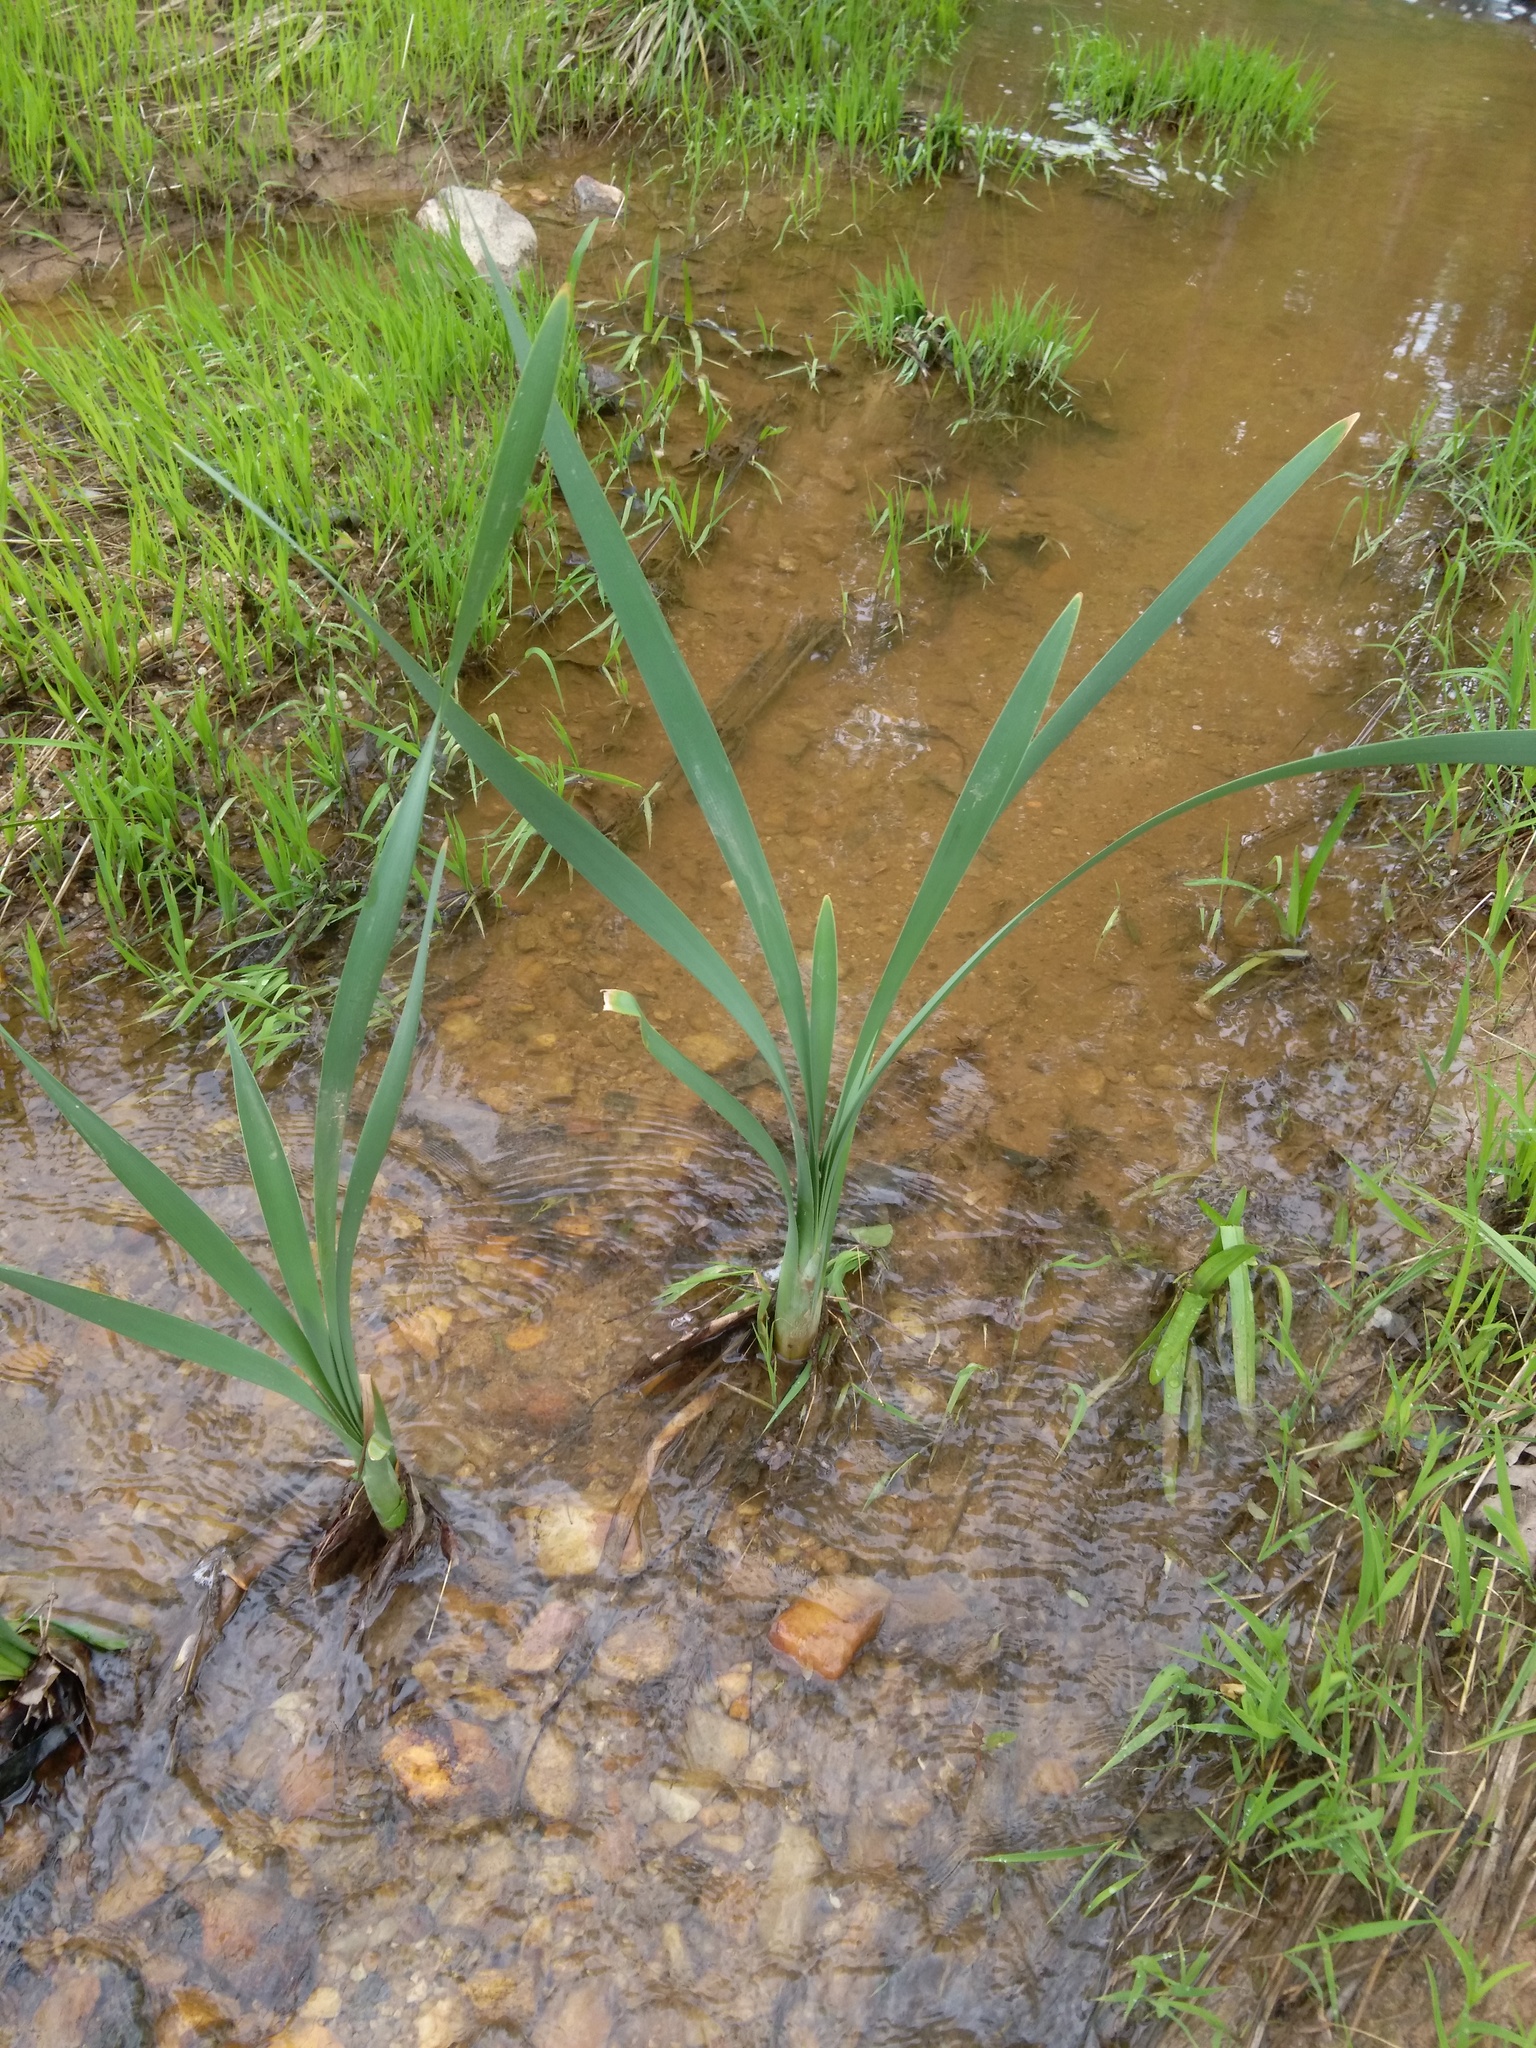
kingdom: Plantae
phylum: Tracheophyta
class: Liliopsida
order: Poales
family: Typhaceae
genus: Typha
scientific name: Typha latifolia
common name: Broadleaf cattail
